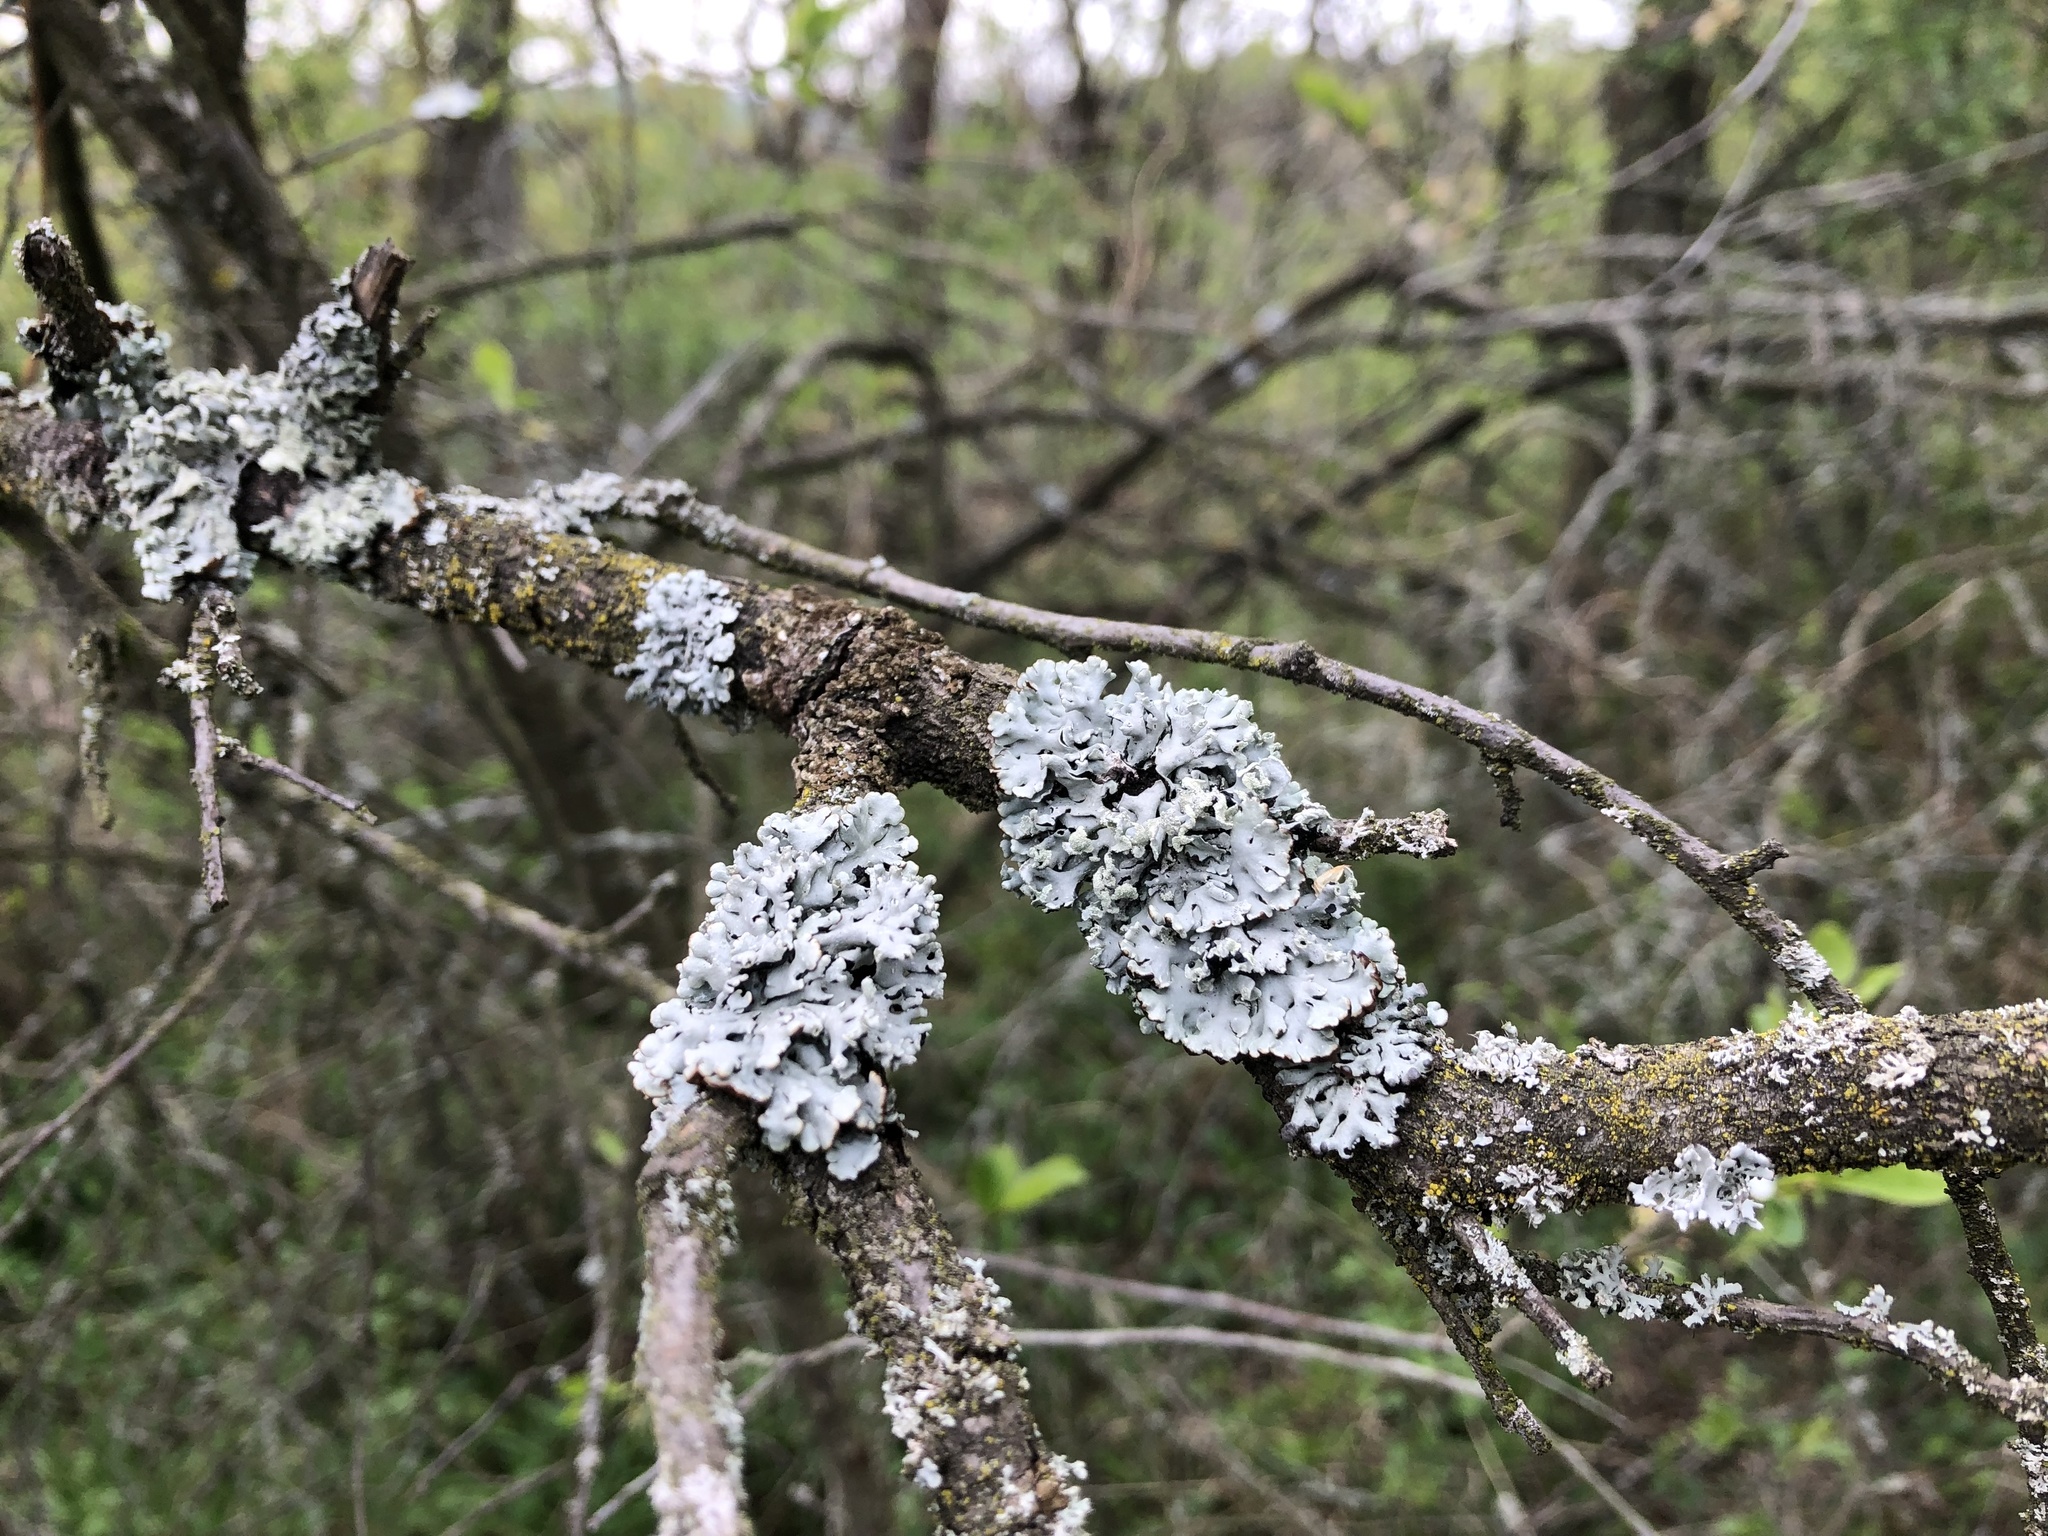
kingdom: Fungi
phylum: Ascomycota
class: Lecanoromycetes
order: Lecanorales
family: Parmeliaceae
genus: Hypogymnia
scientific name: Hypogymnia physodes
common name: Dark crottle
